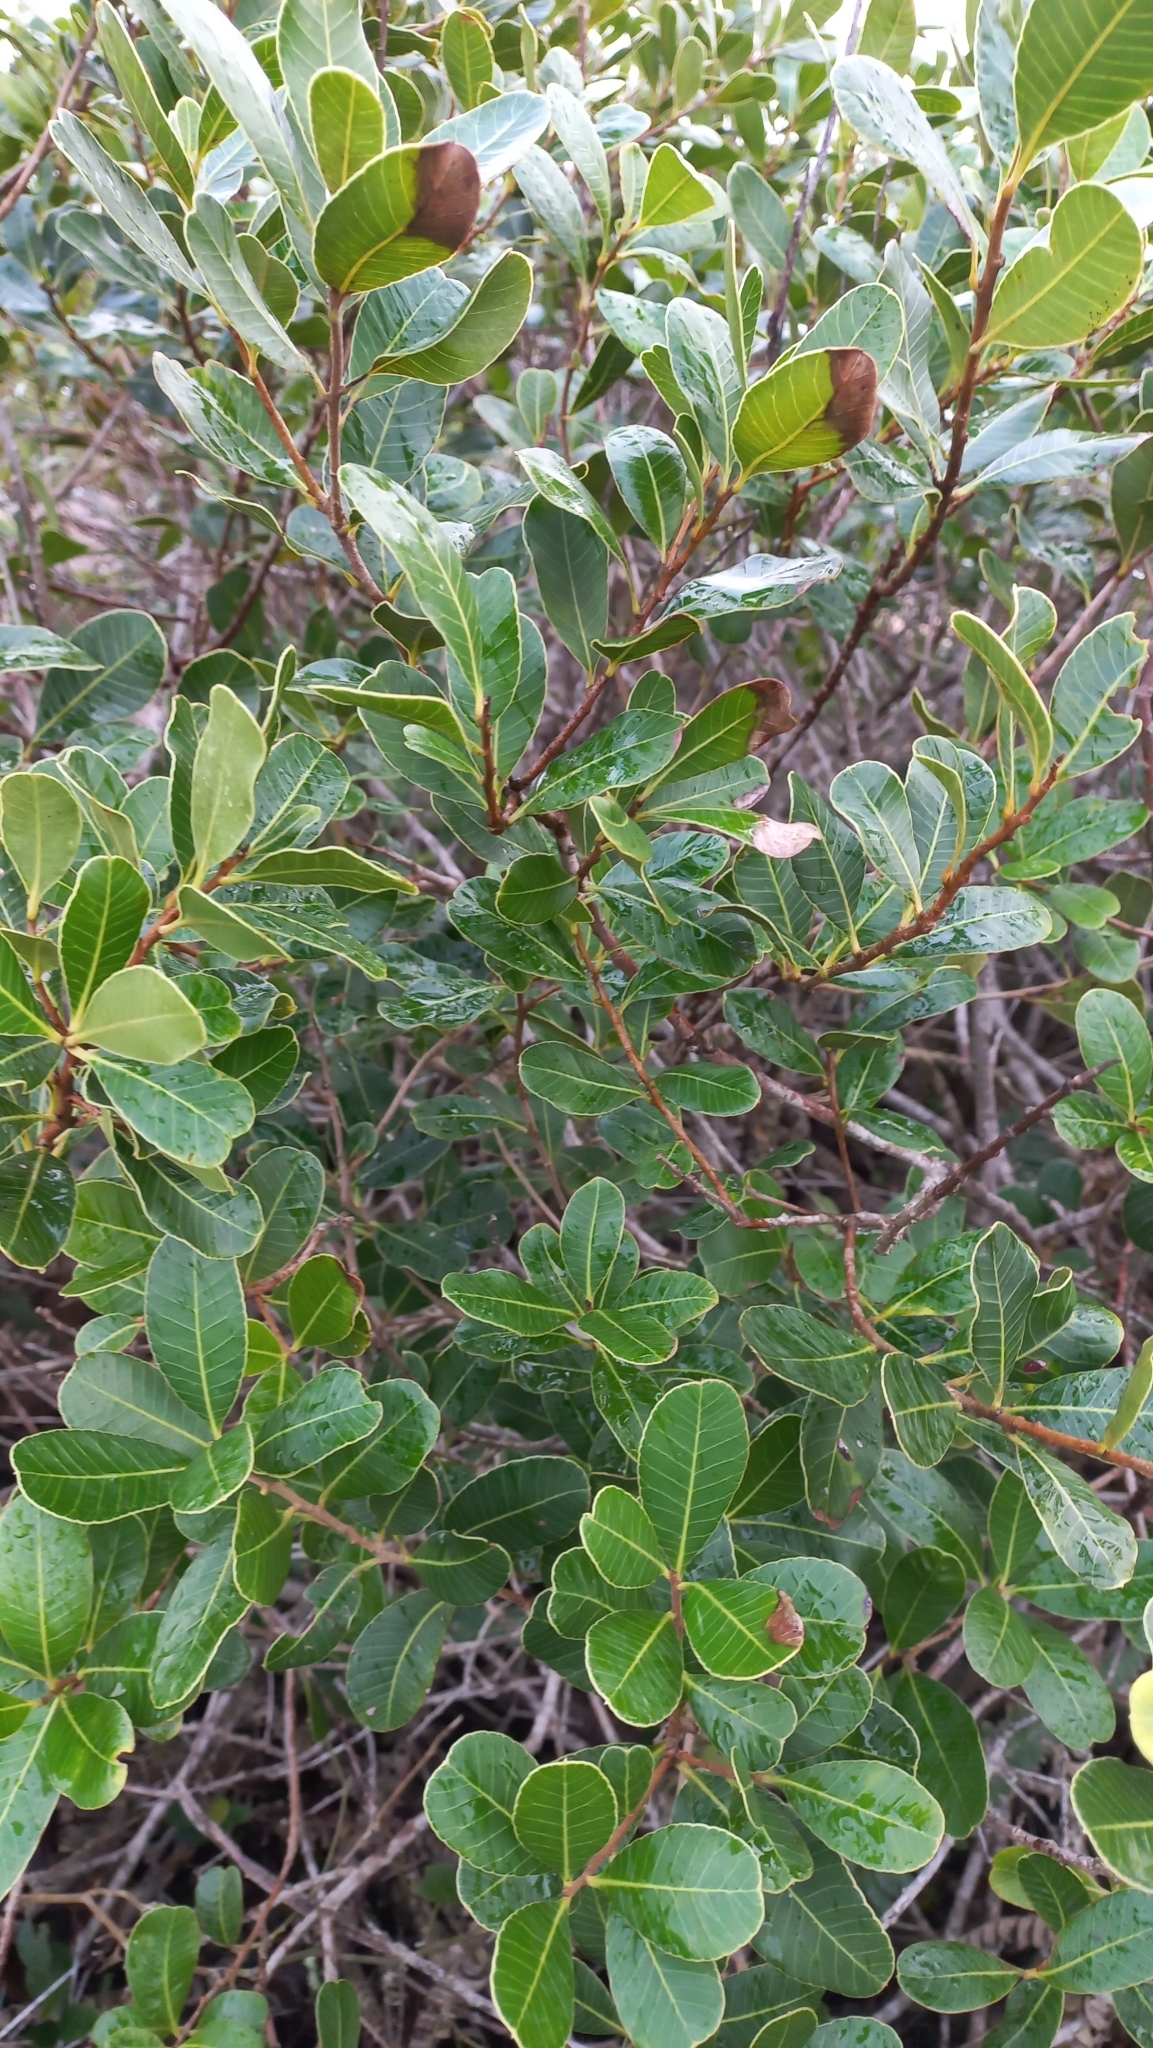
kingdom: Plantae
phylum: Tracheophyta
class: Magnoliopsida
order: Sapindales
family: Anacardiaceae
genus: Lithraea
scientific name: Lithraea brasiliensis
